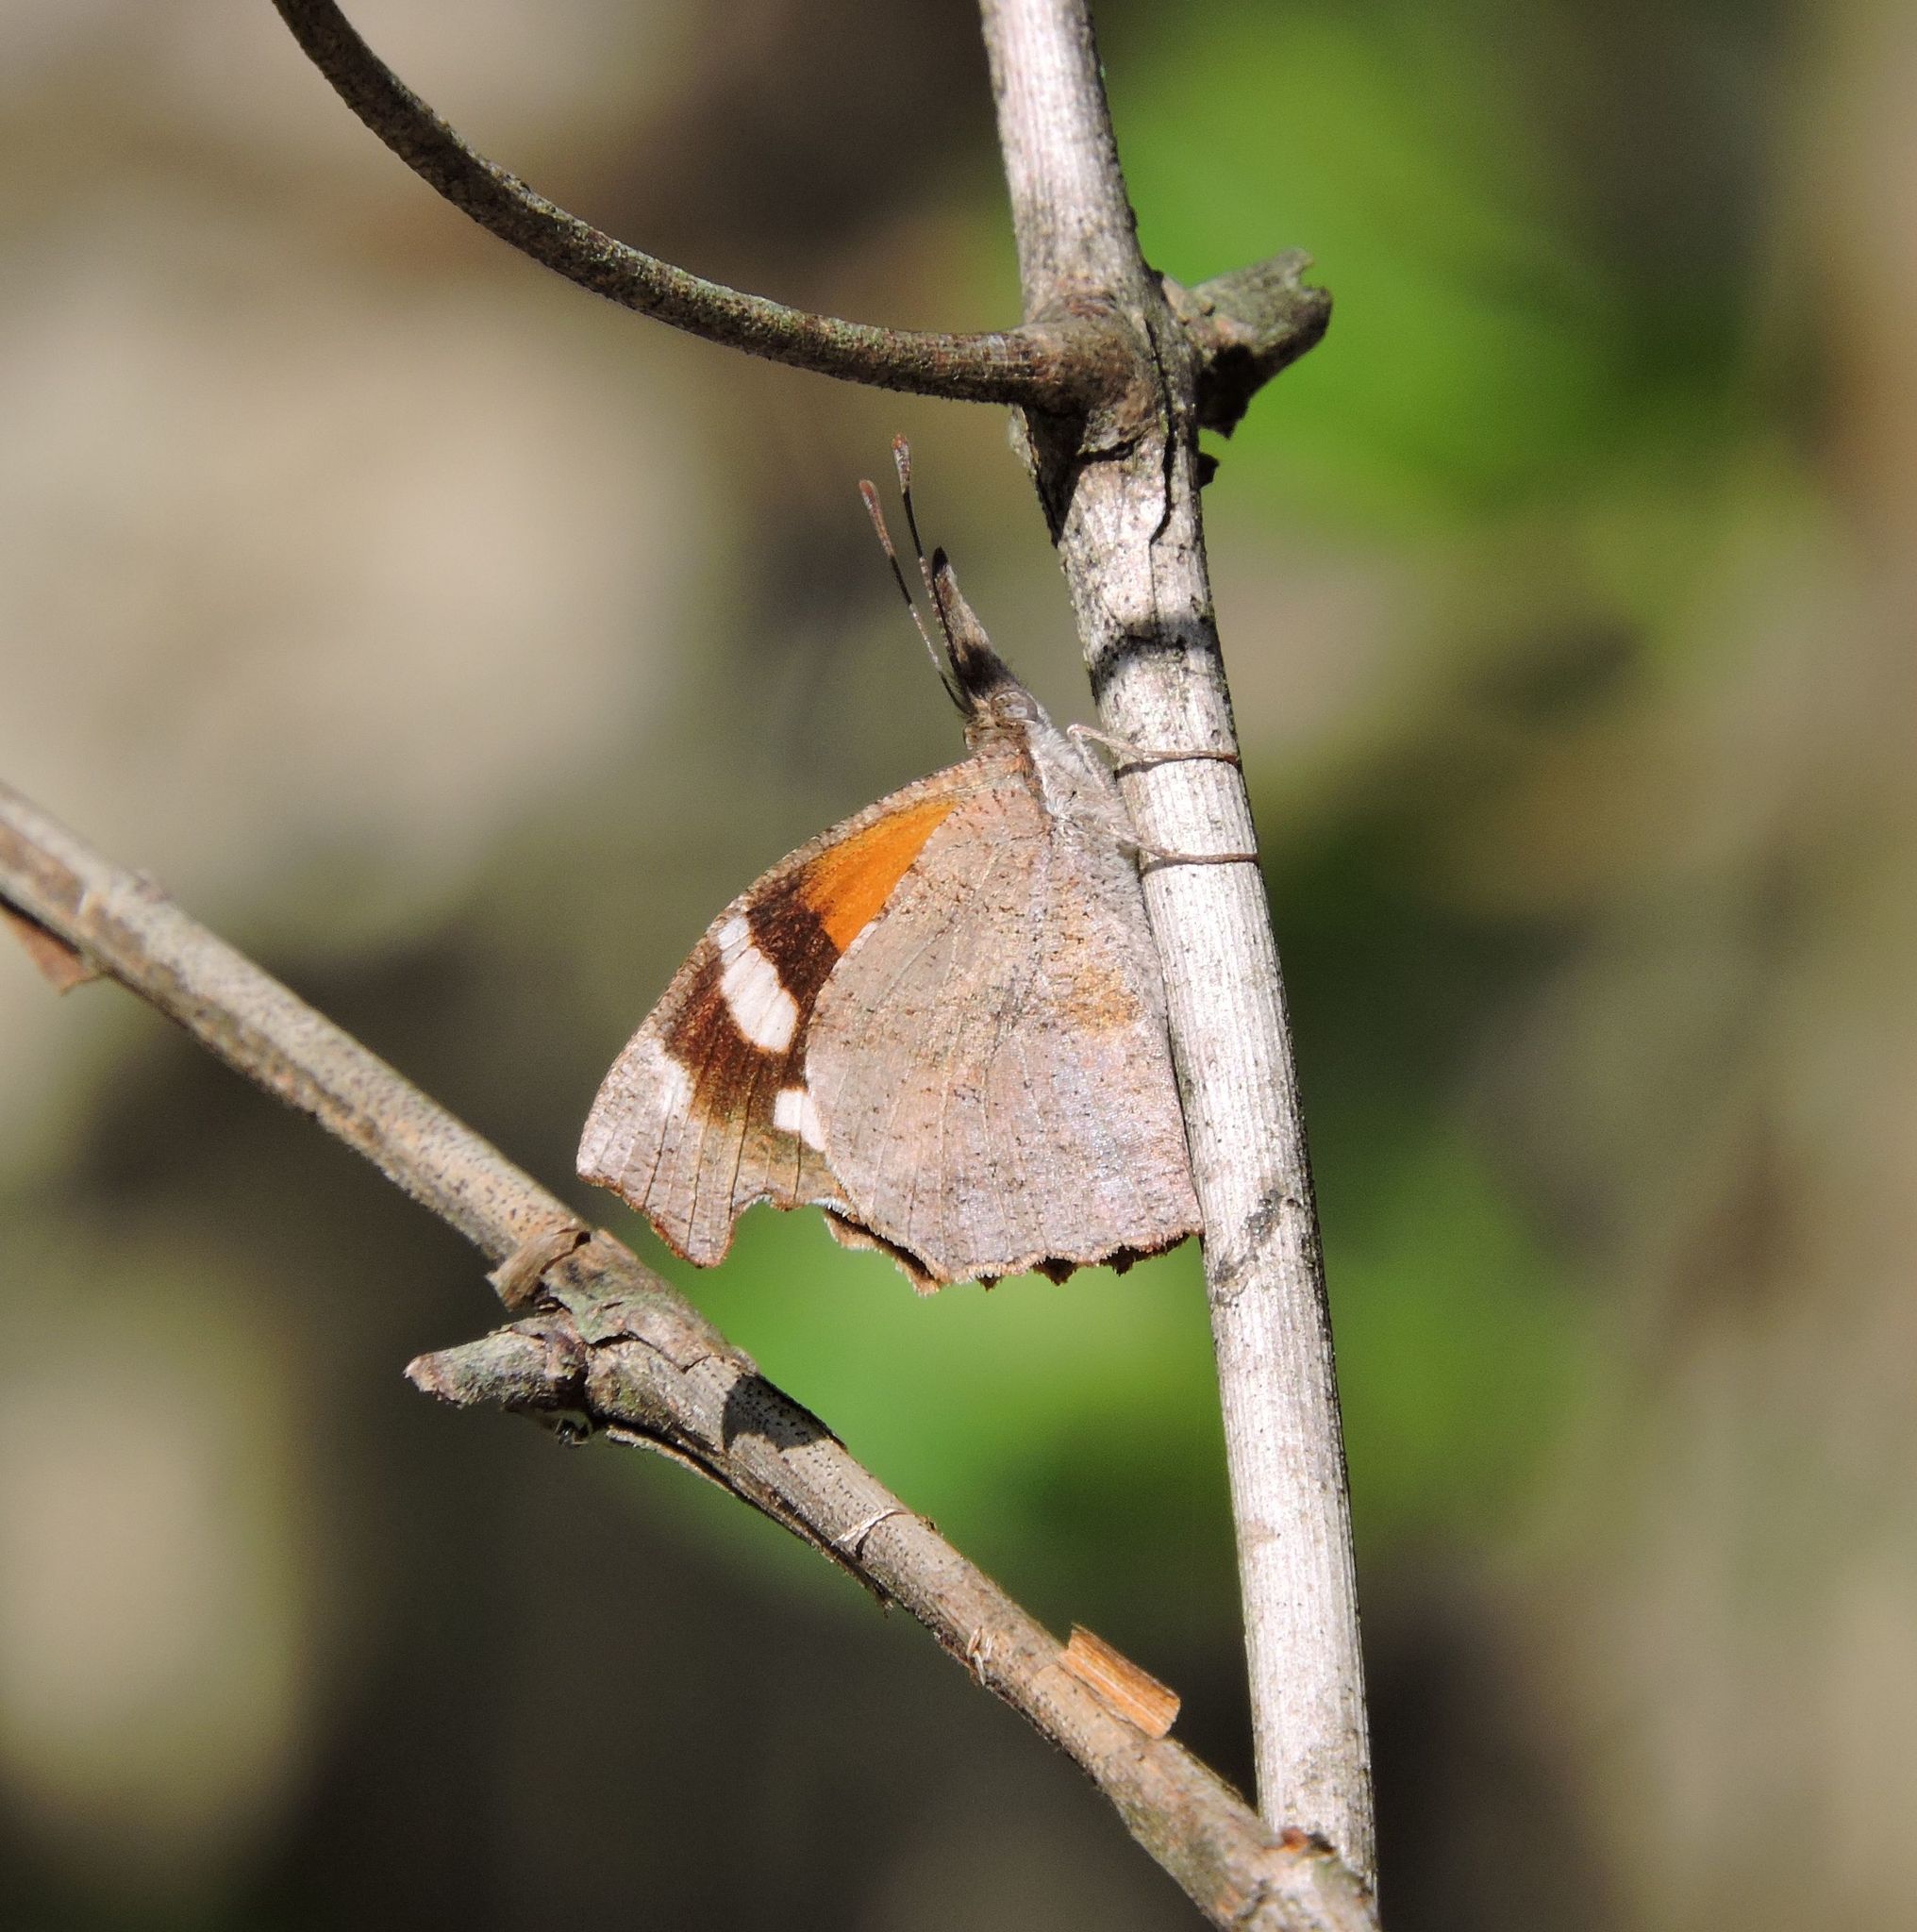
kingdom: Animalia
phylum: Arthropoda
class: Insecta
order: Lepidoptera
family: Nymphalidae
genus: Libytheana
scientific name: Libytheana carinenta
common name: American snout
